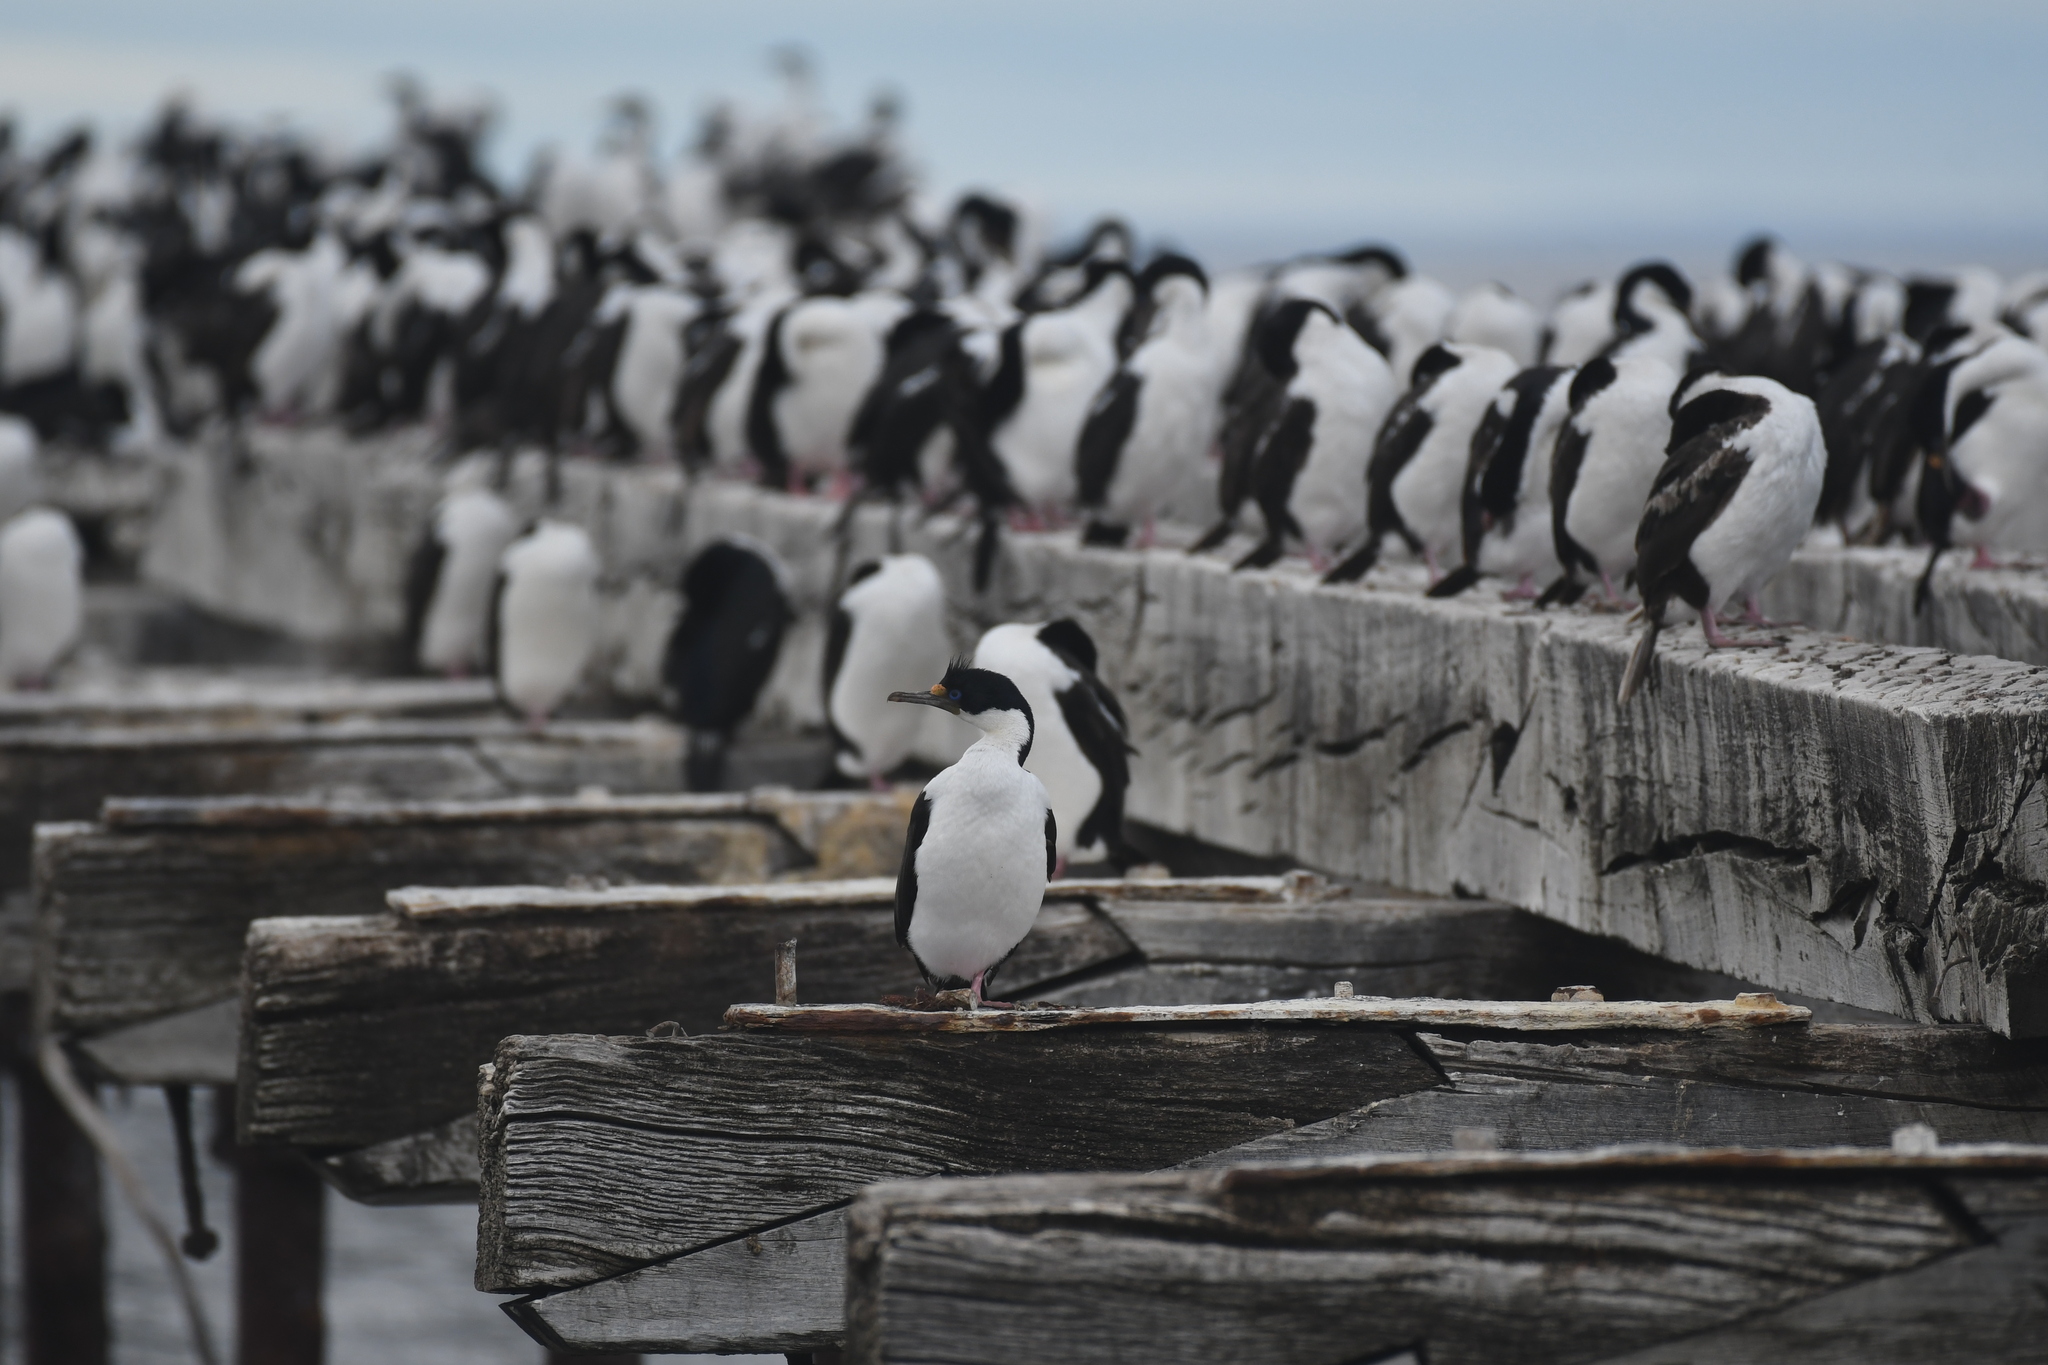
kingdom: Animalia
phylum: Chordata
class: Aves
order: Suliformes
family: Phalacrocoracidae
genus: Leucocarbo
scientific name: Leucocarbo atriceps
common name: Imperial shag
